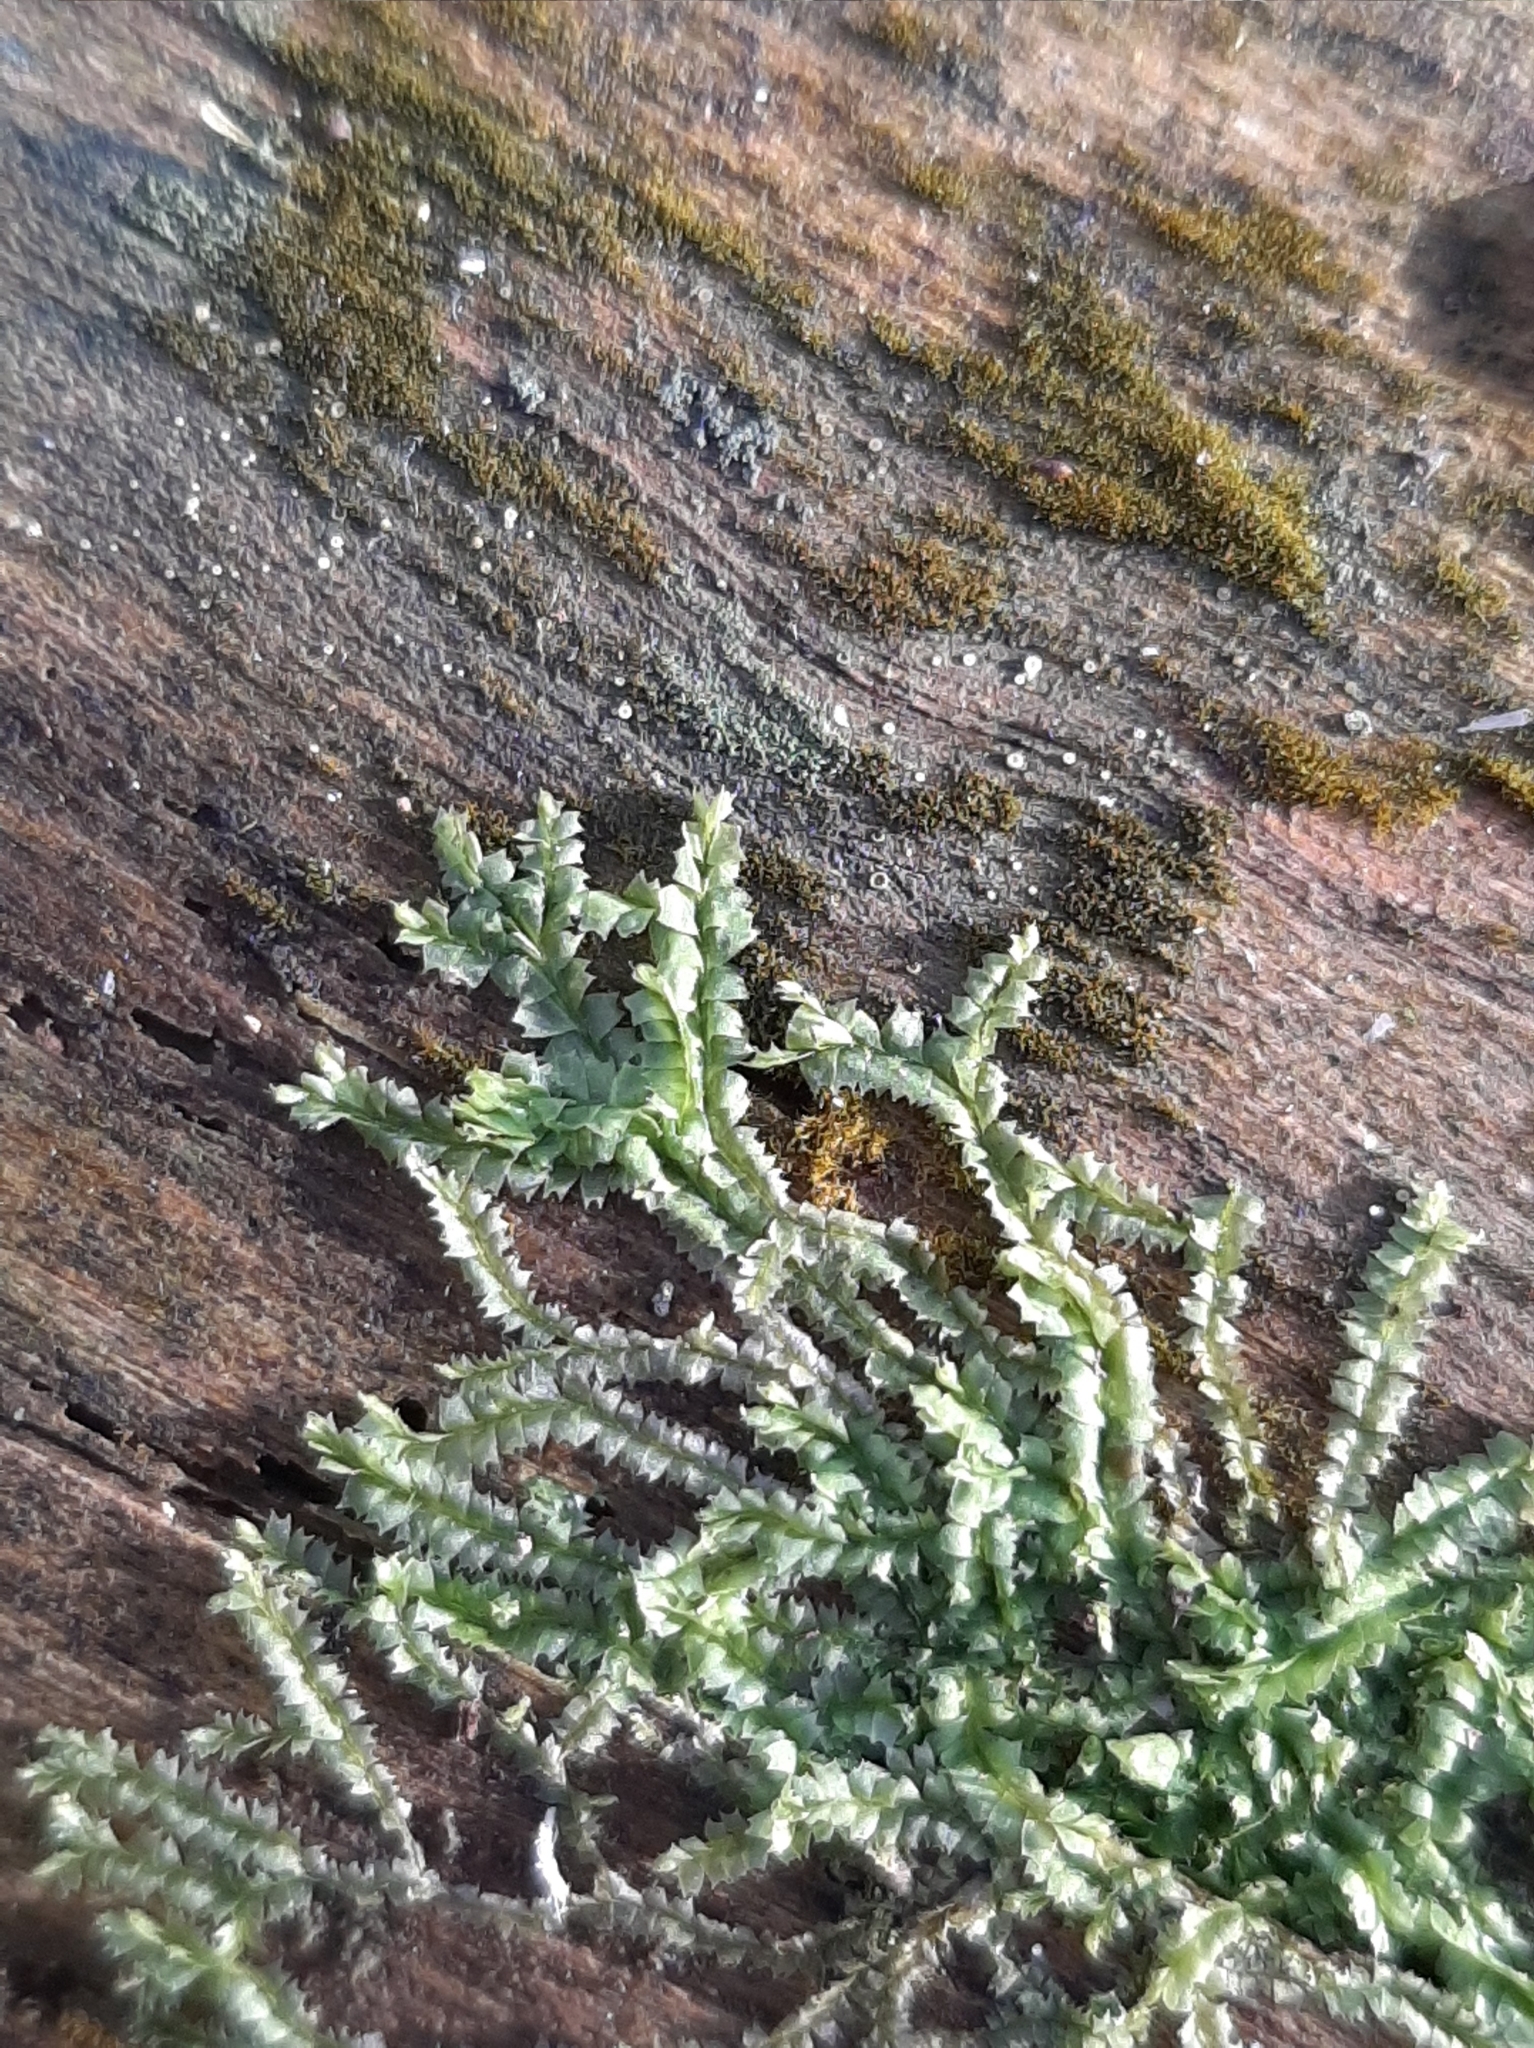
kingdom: Plantae
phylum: Marchantiophyta
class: Jungermanniopsida
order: Jungermanniales
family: Lophocoleaceae
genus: Lophocolea
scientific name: Lophocolea heterophylla
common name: Variable-leaved crestwort
